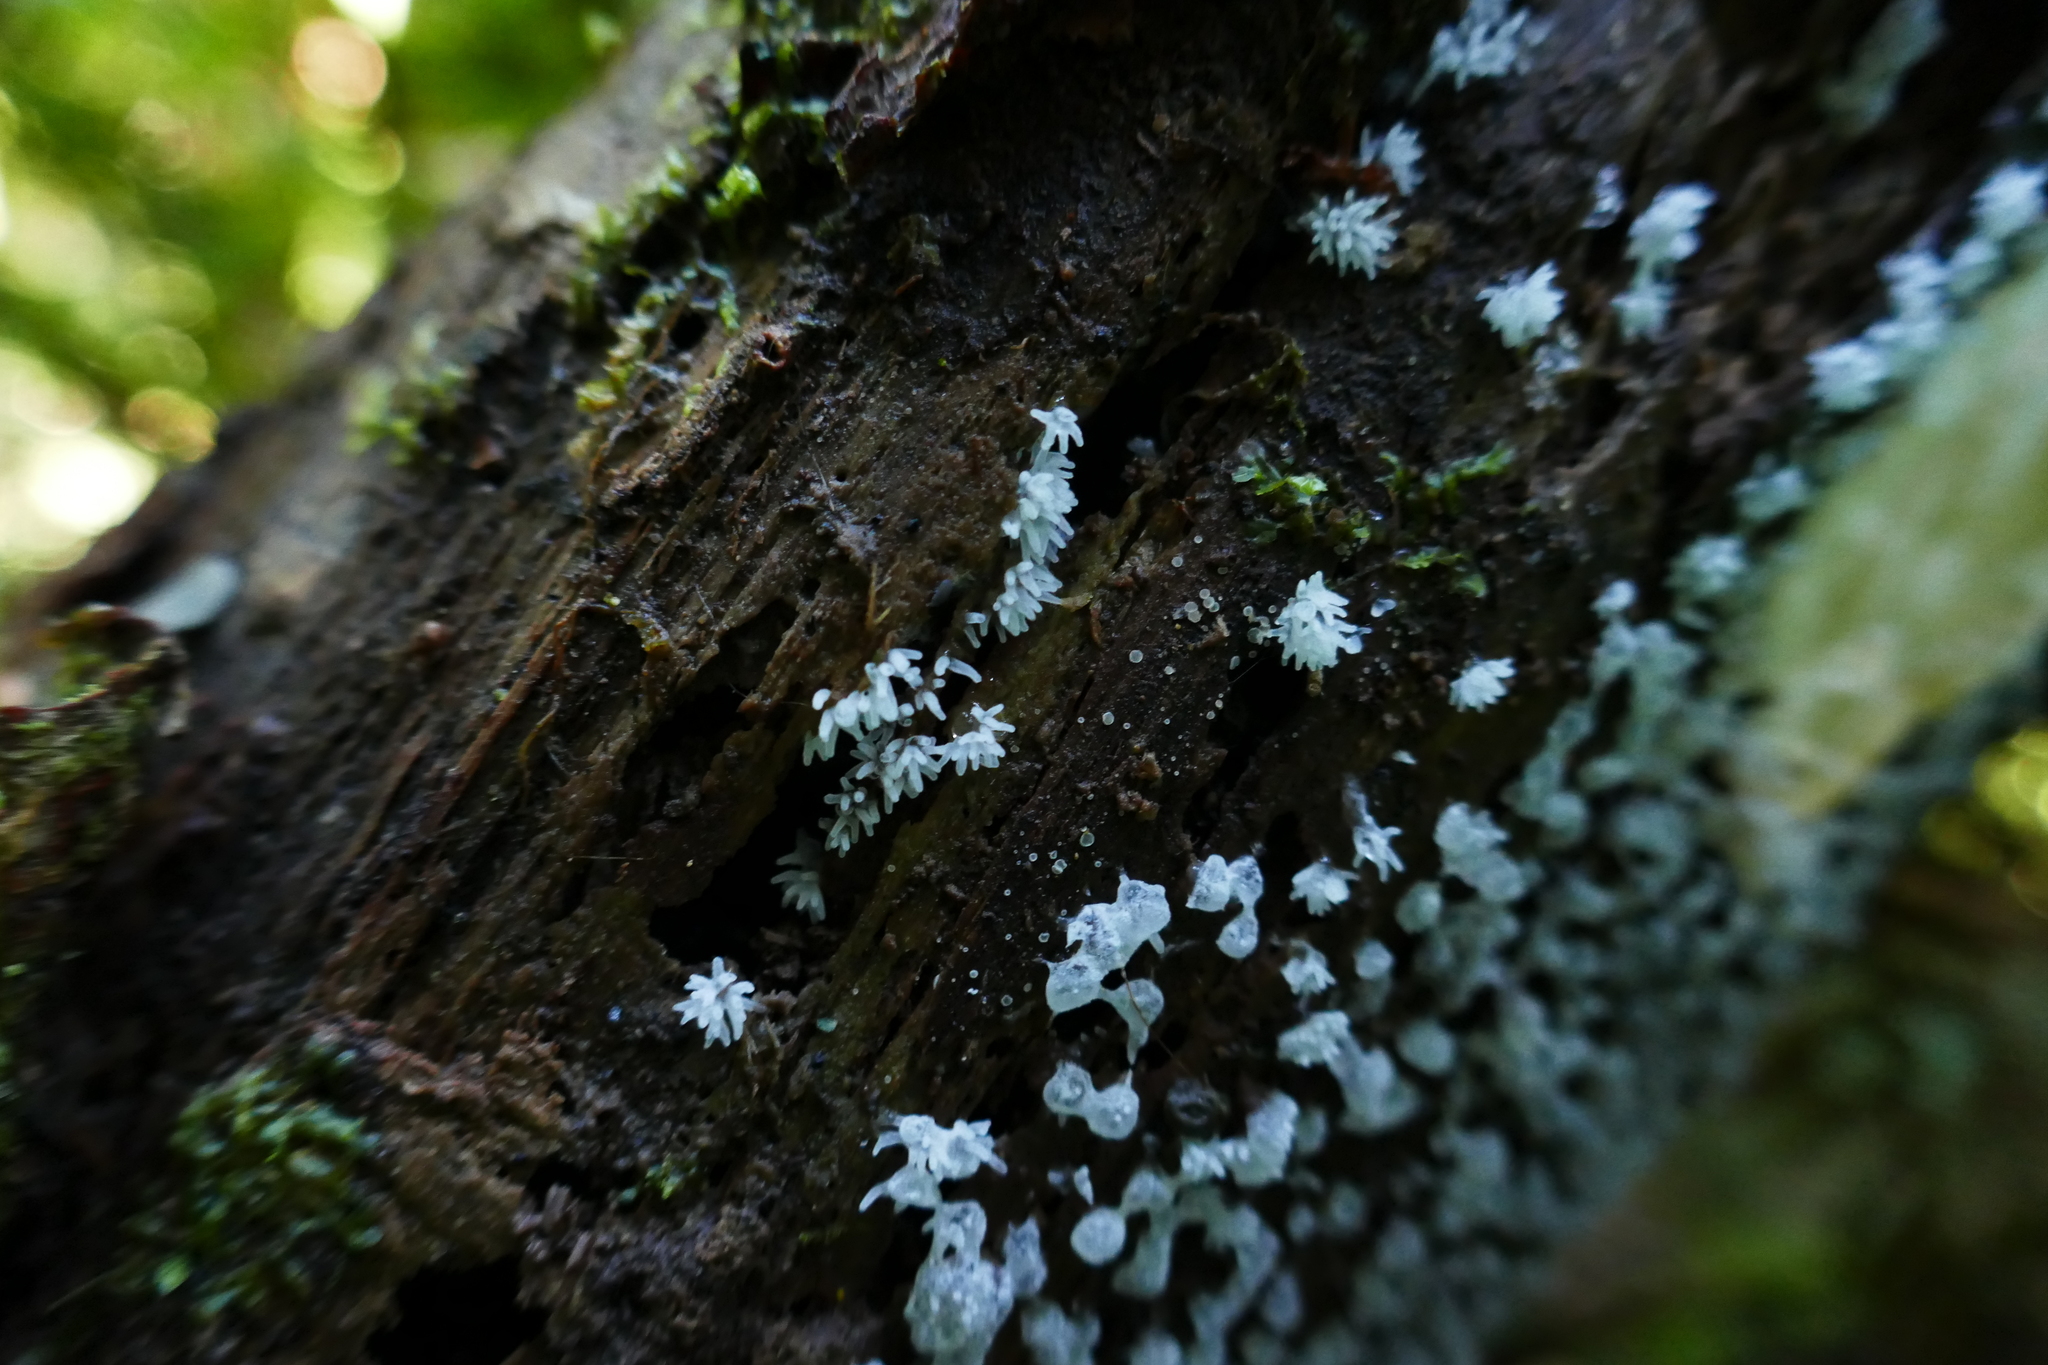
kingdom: Protozoa
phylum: Mycetozoa
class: Protosteliomycetes
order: Ceratiomyxales
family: Ceratiomyxaceae
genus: Ceratiomyxa
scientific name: Ceratiomyxa fruticulosa
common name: Honeycomb coral slime mold
